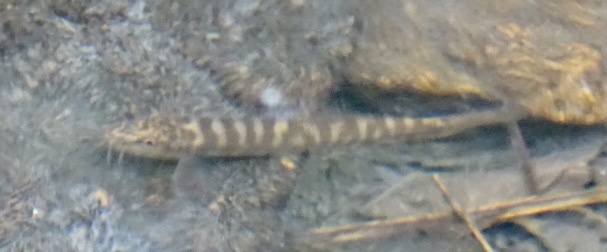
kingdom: Animalia
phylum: Chordata
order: Cypriniformes
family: Nemacheilidae
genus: Schistura
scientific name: Schistura fasciolata
